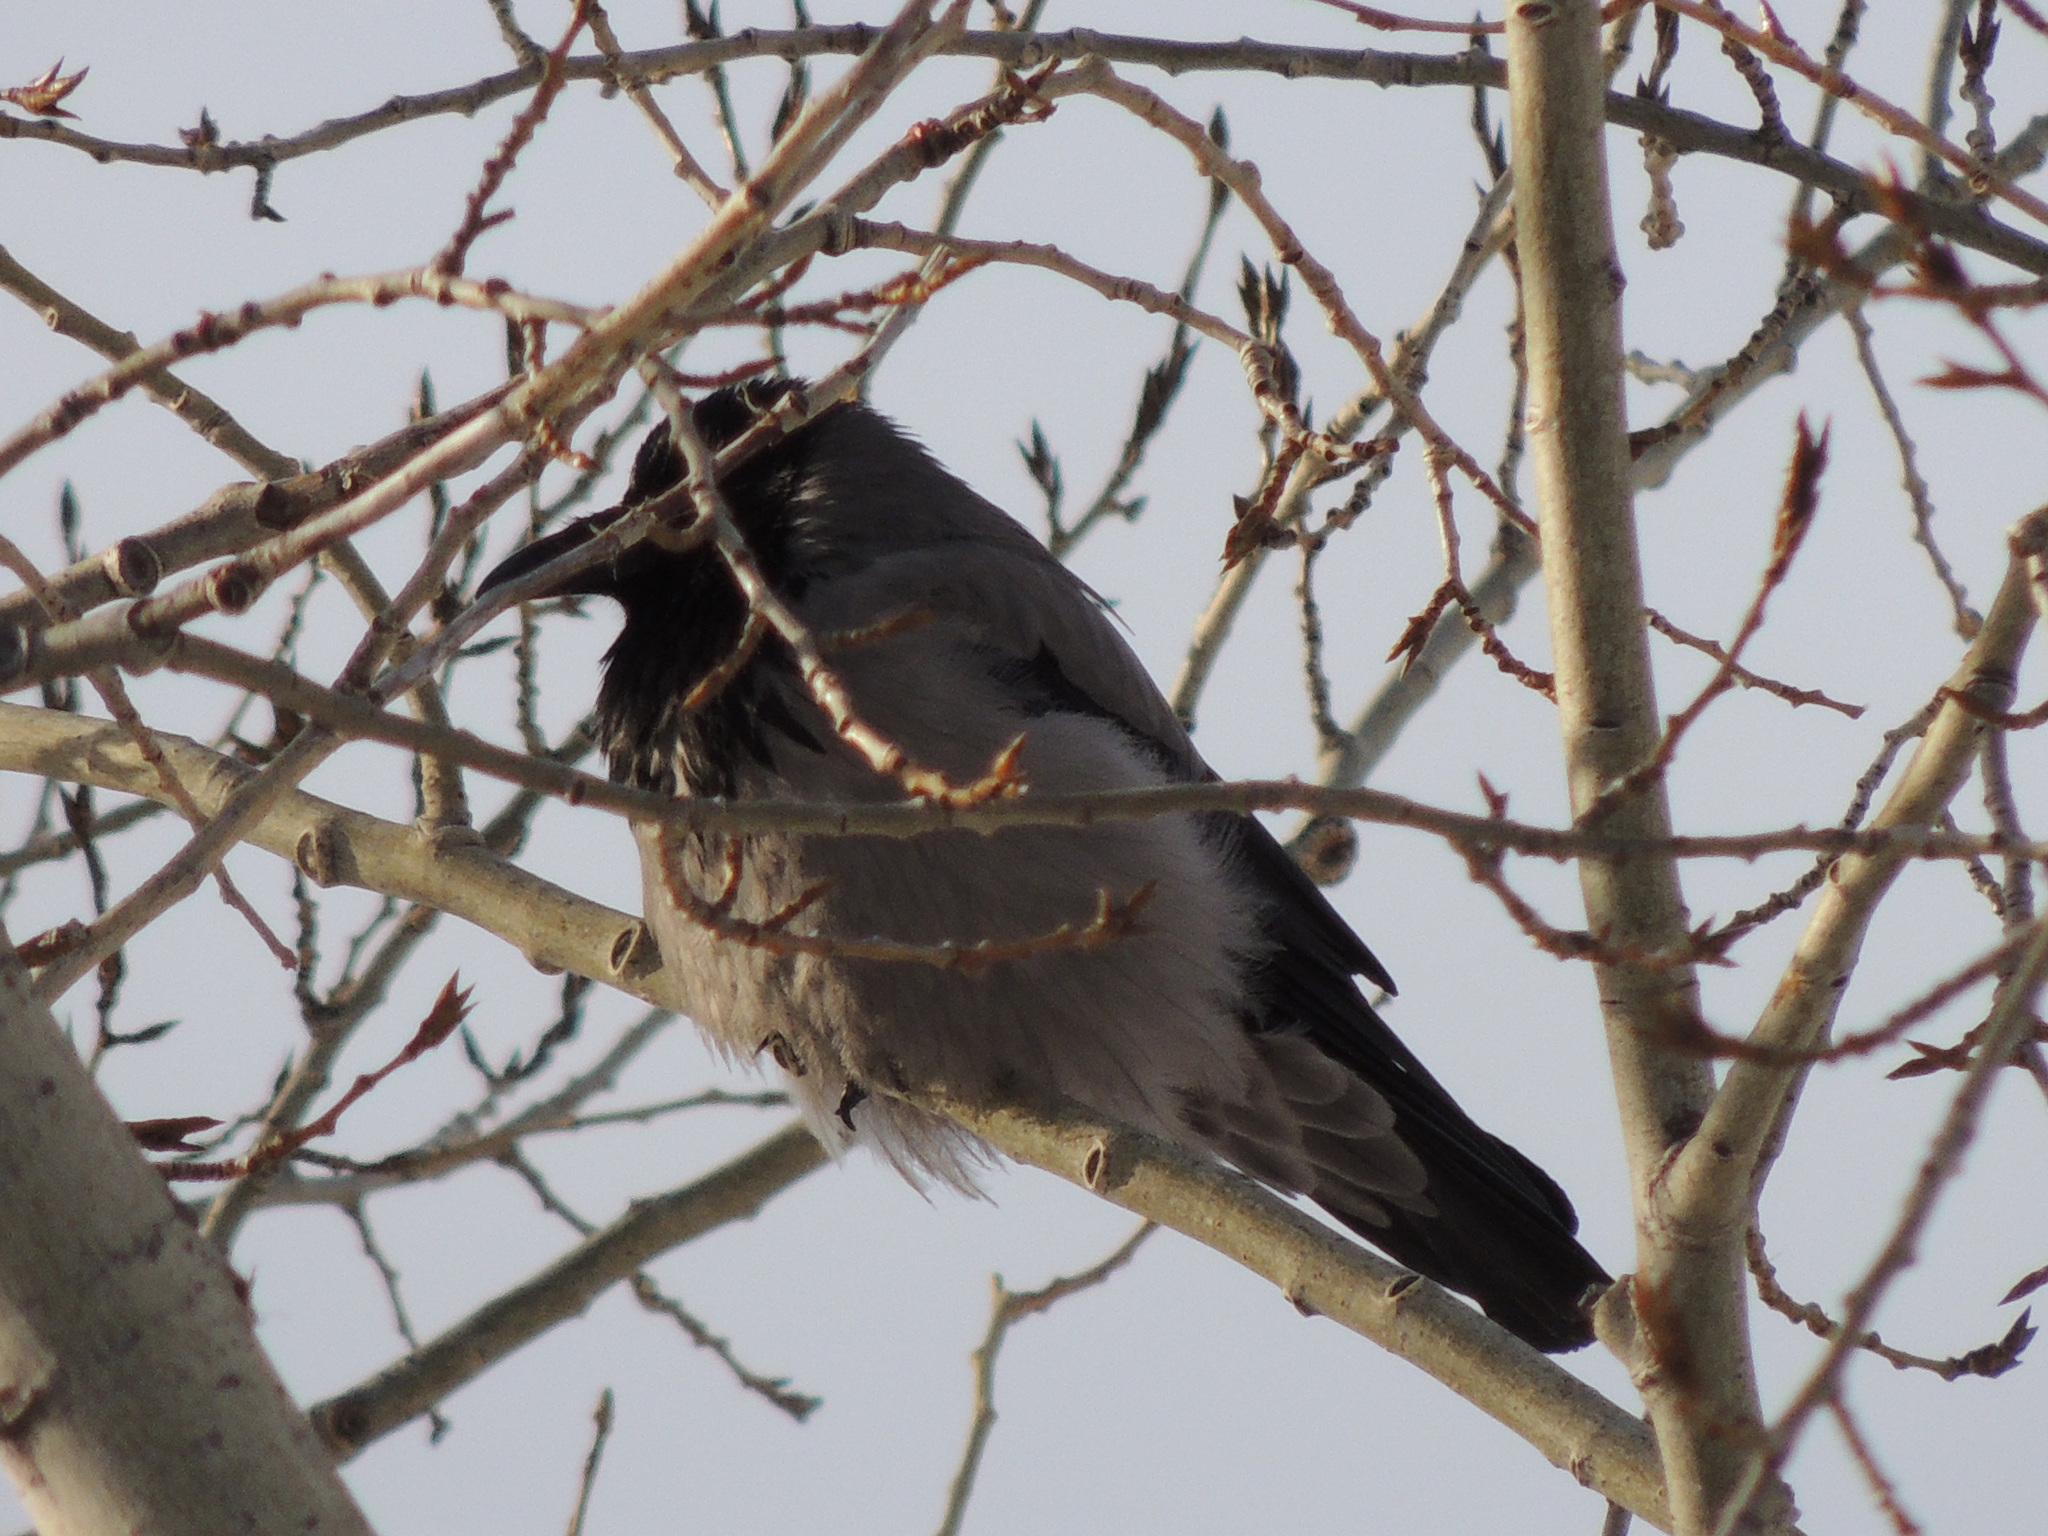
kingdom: Animalia
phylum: Chordata
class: Aves
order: Passeriformes
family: Corvidae
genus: Corvus
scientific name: Corvus cornix
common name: Hooded crow
